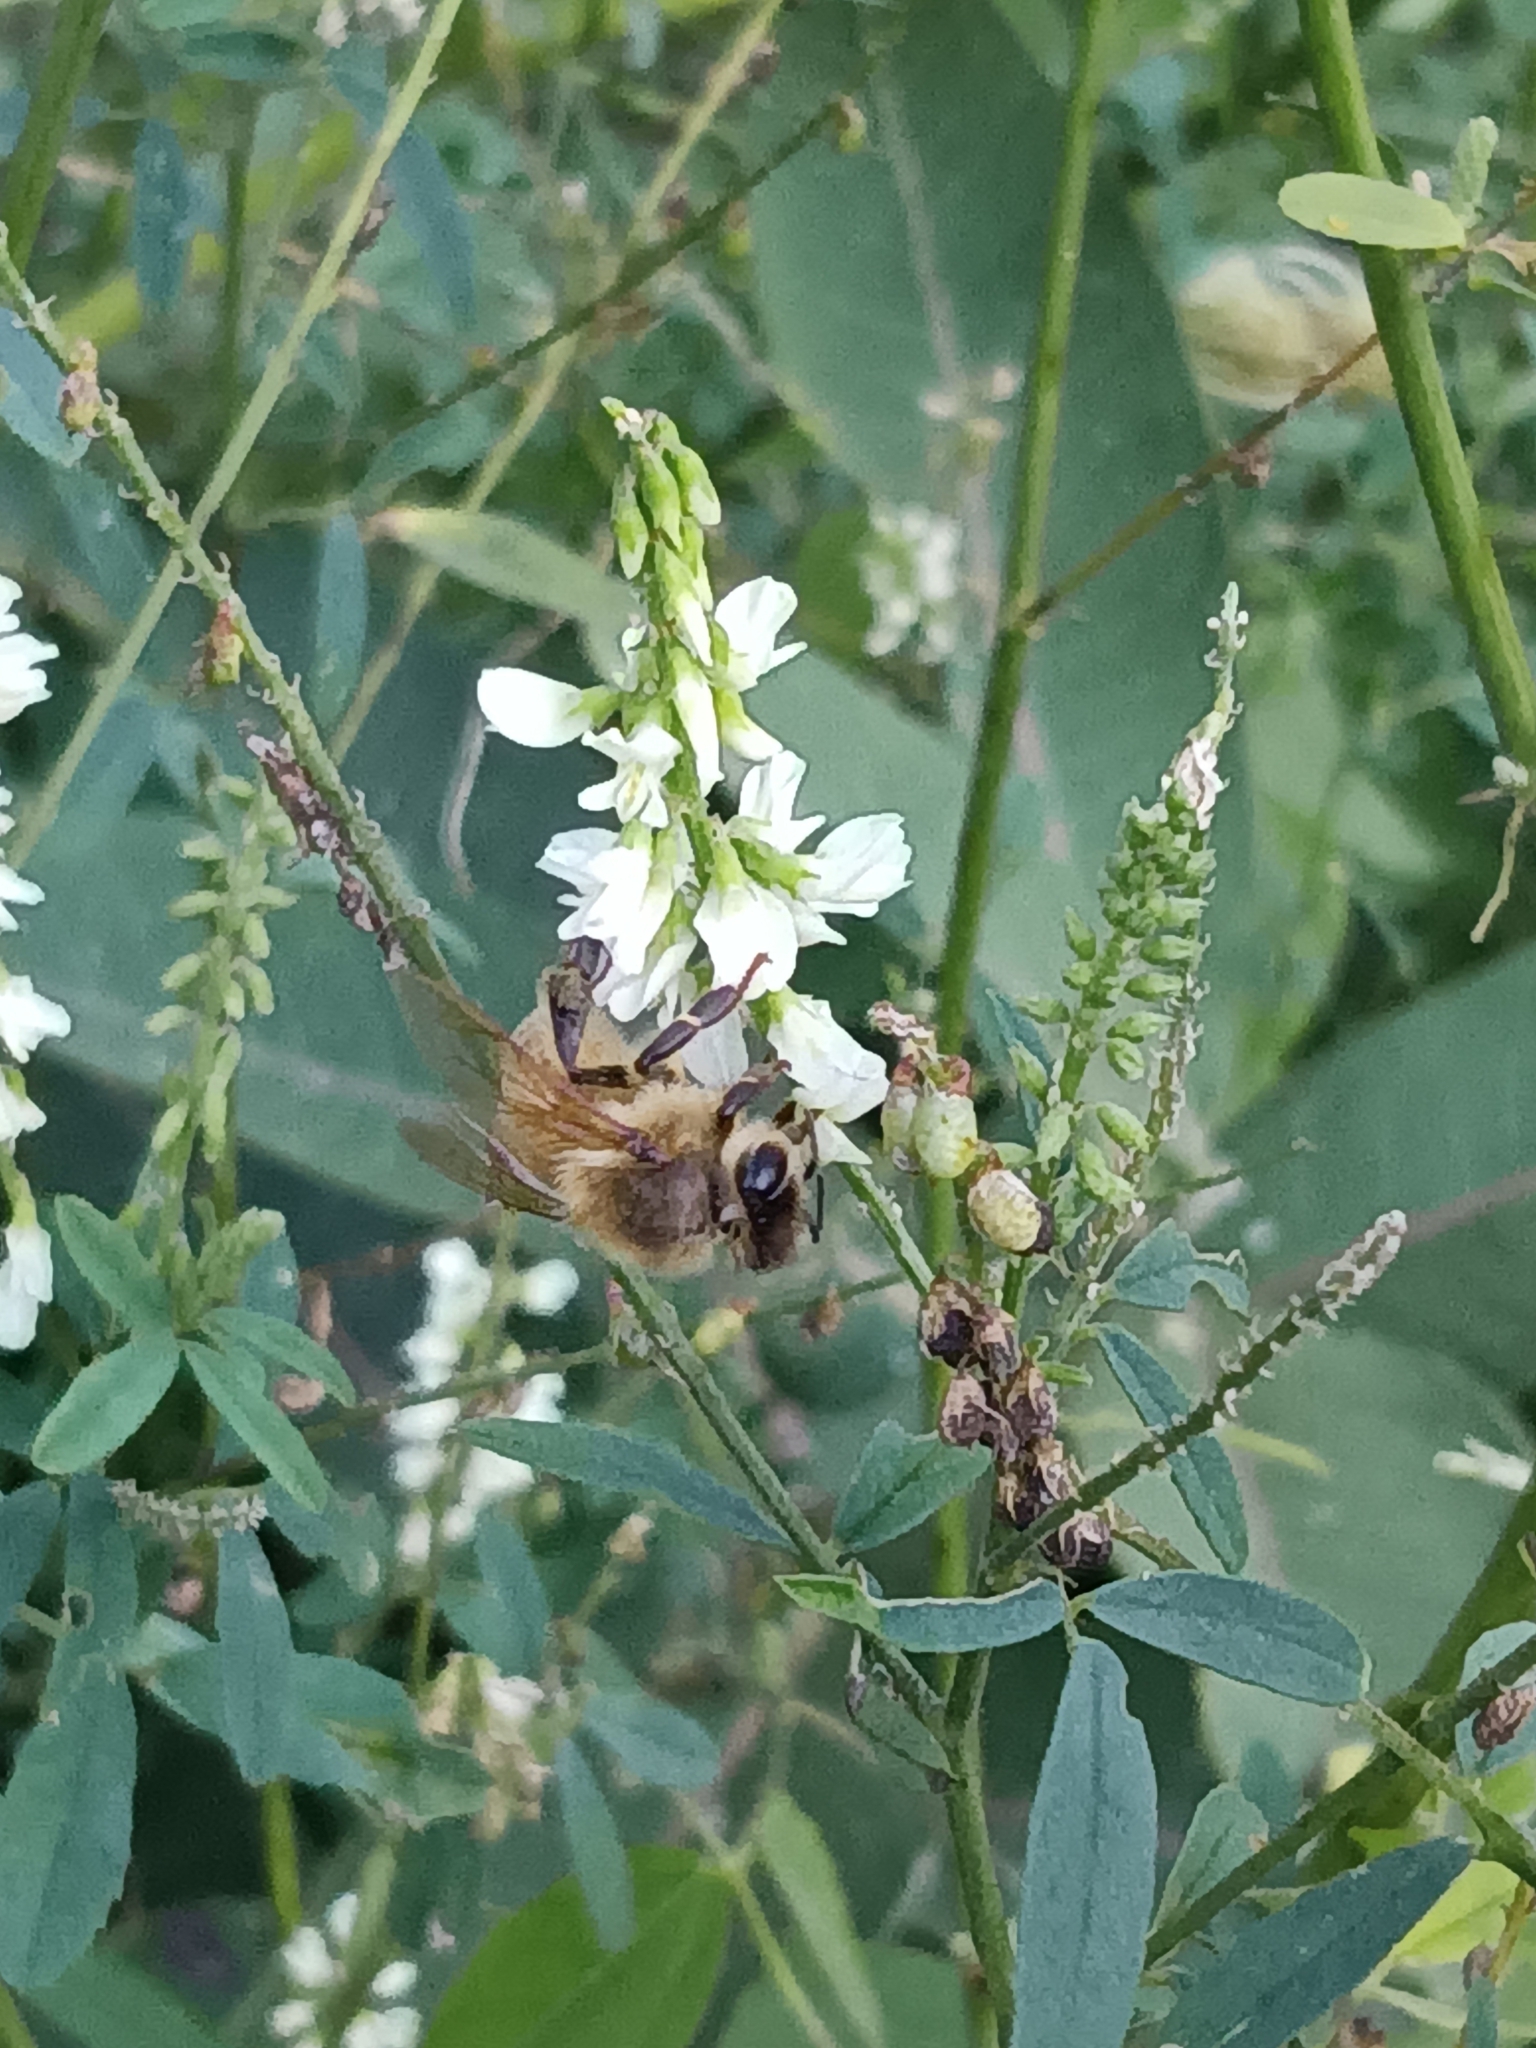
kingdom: Animalia
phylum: Arthropoda
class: Insecta
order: Hymenoptera
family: Apidae
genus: Apis
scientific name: Apis mellifera
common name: Honey bee
